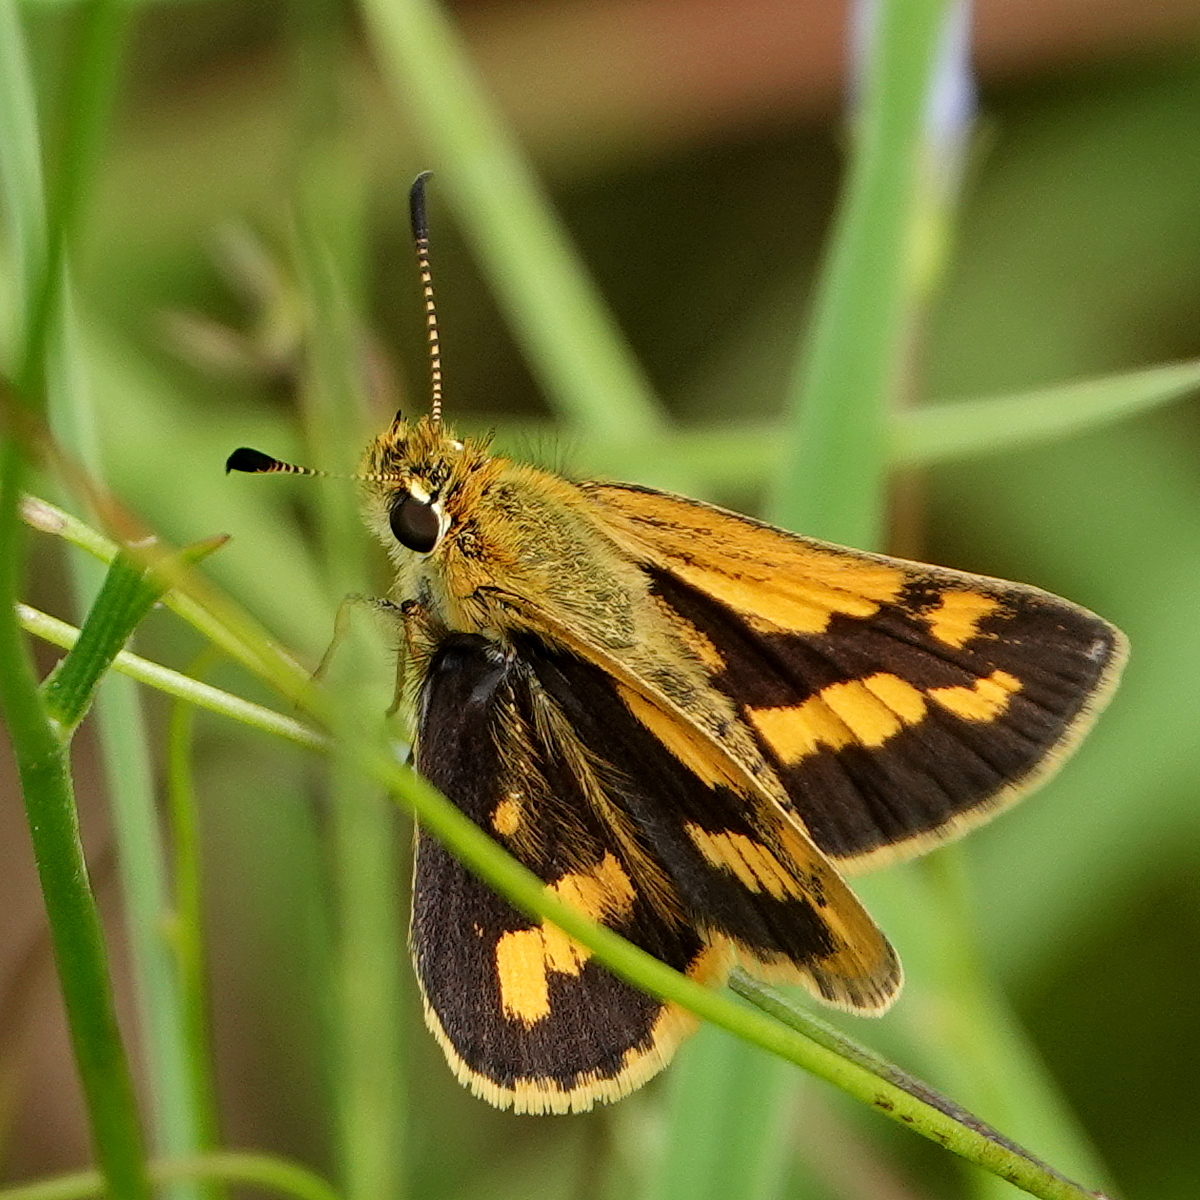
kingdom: Animalia
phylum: Arthropoda
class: Insecta
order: Lepidoptera
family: Hesperiidae
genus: Ocybadistes
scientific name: Ocybadistes flavovittata
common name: Narrow-brand grass-dart
